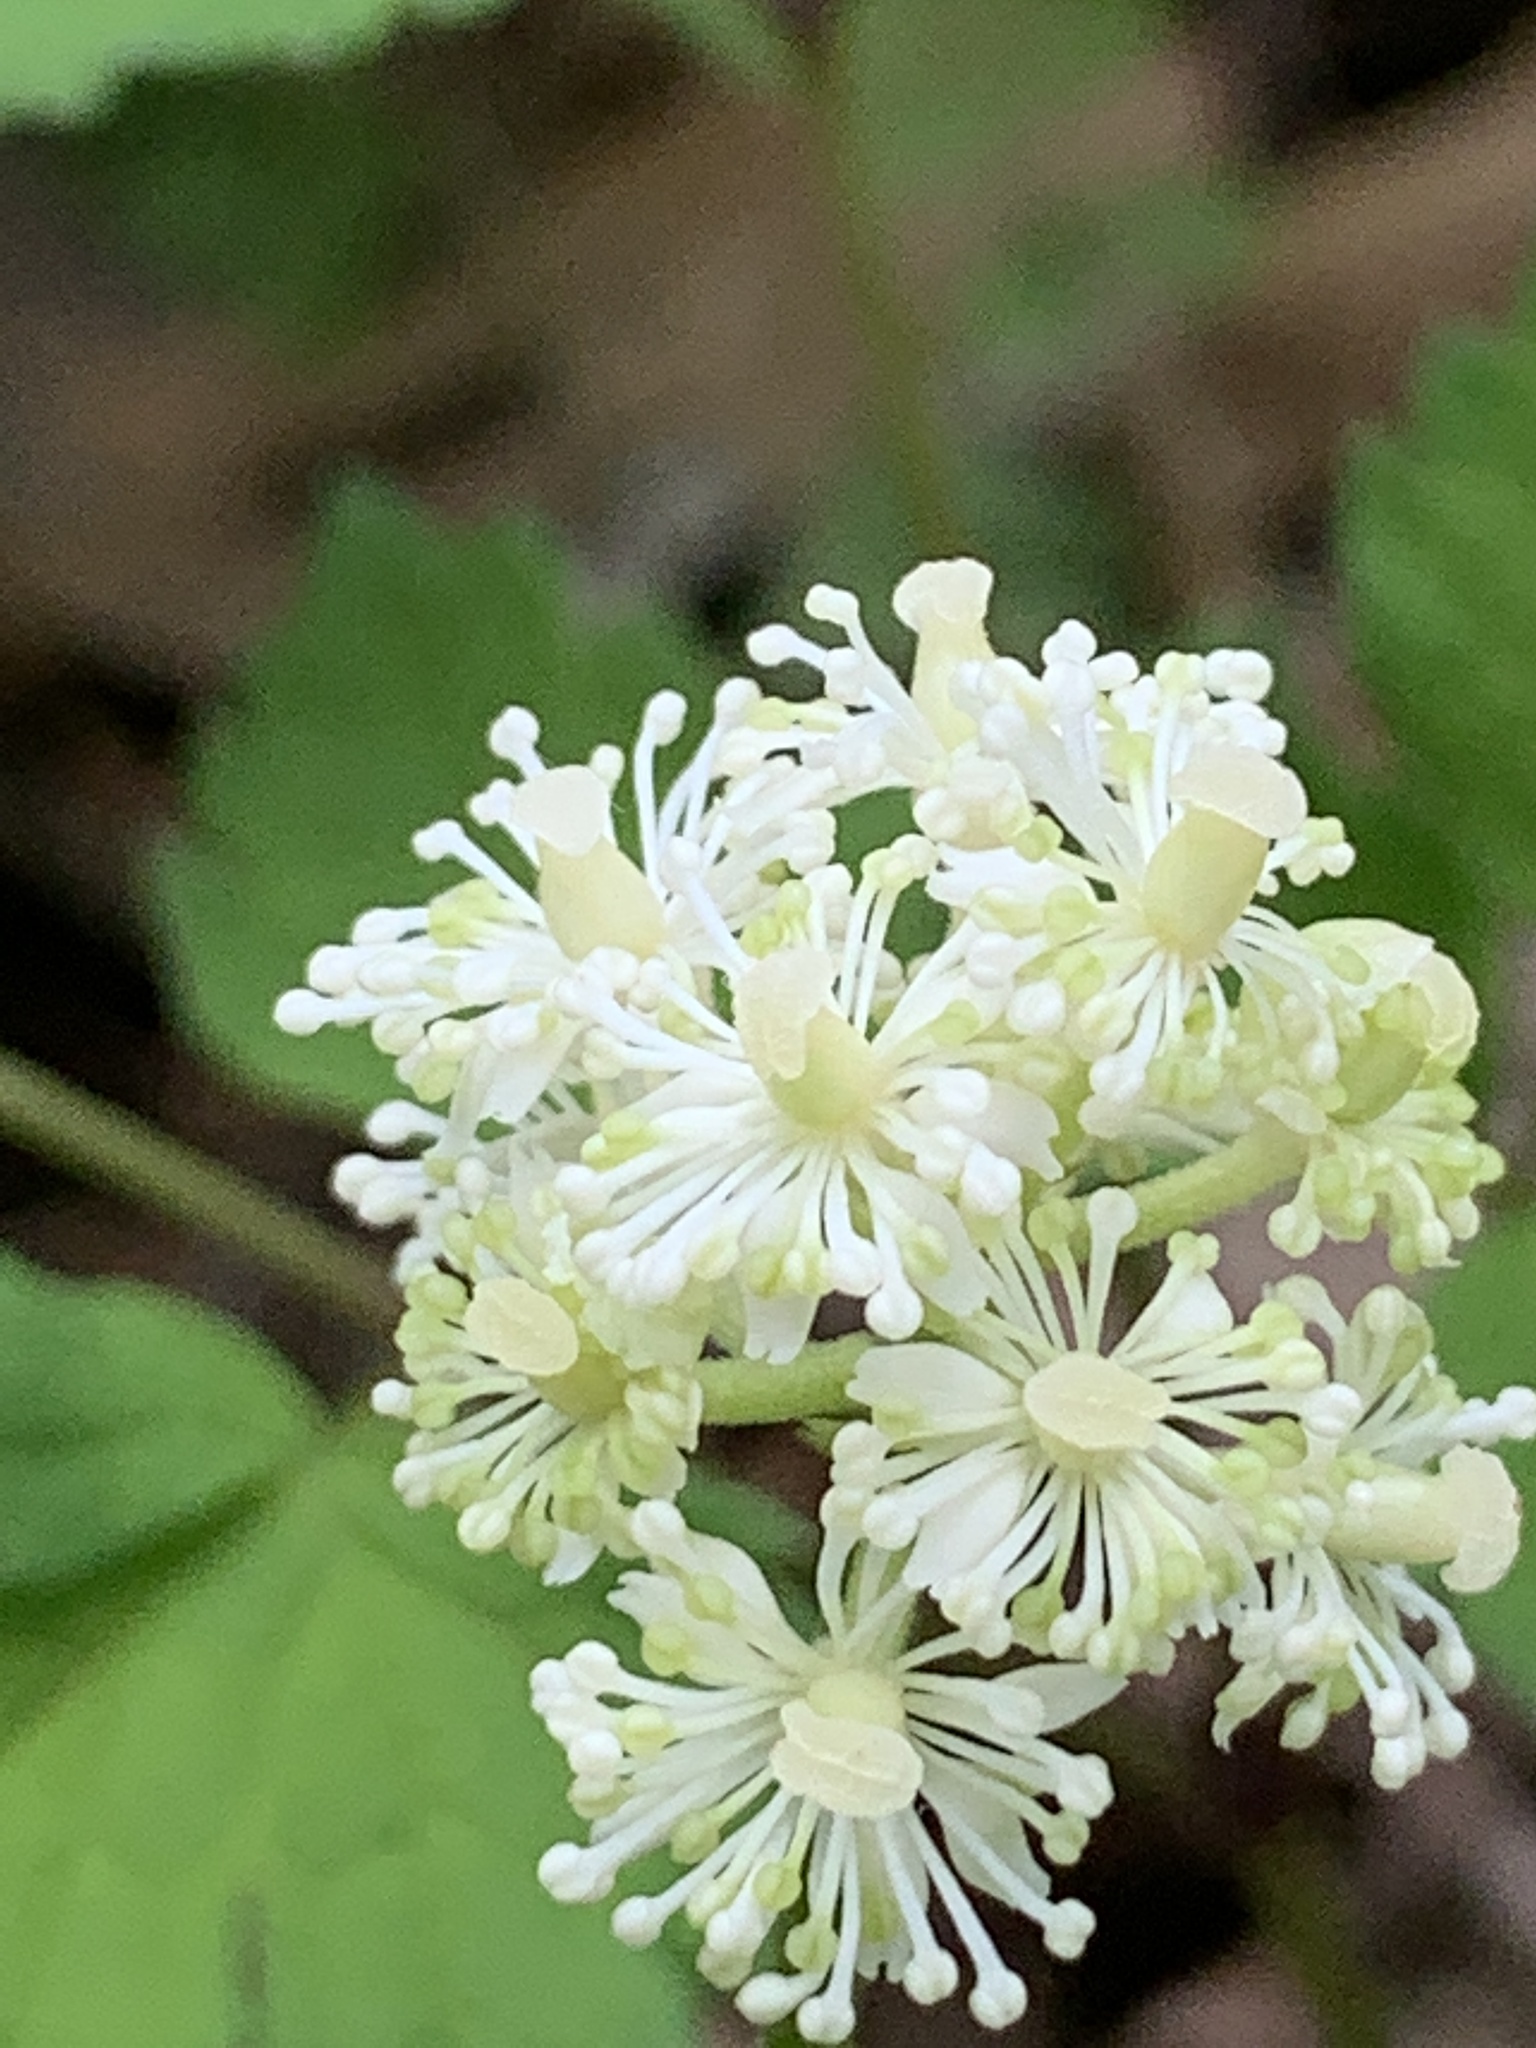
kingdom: Plantae
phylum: Tracheophyta
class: Magnoliopsida
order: Ranunculales
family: Ranunculaceae
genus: Actaea
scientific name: Actaea pachypoda
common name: Doll's-eyes
